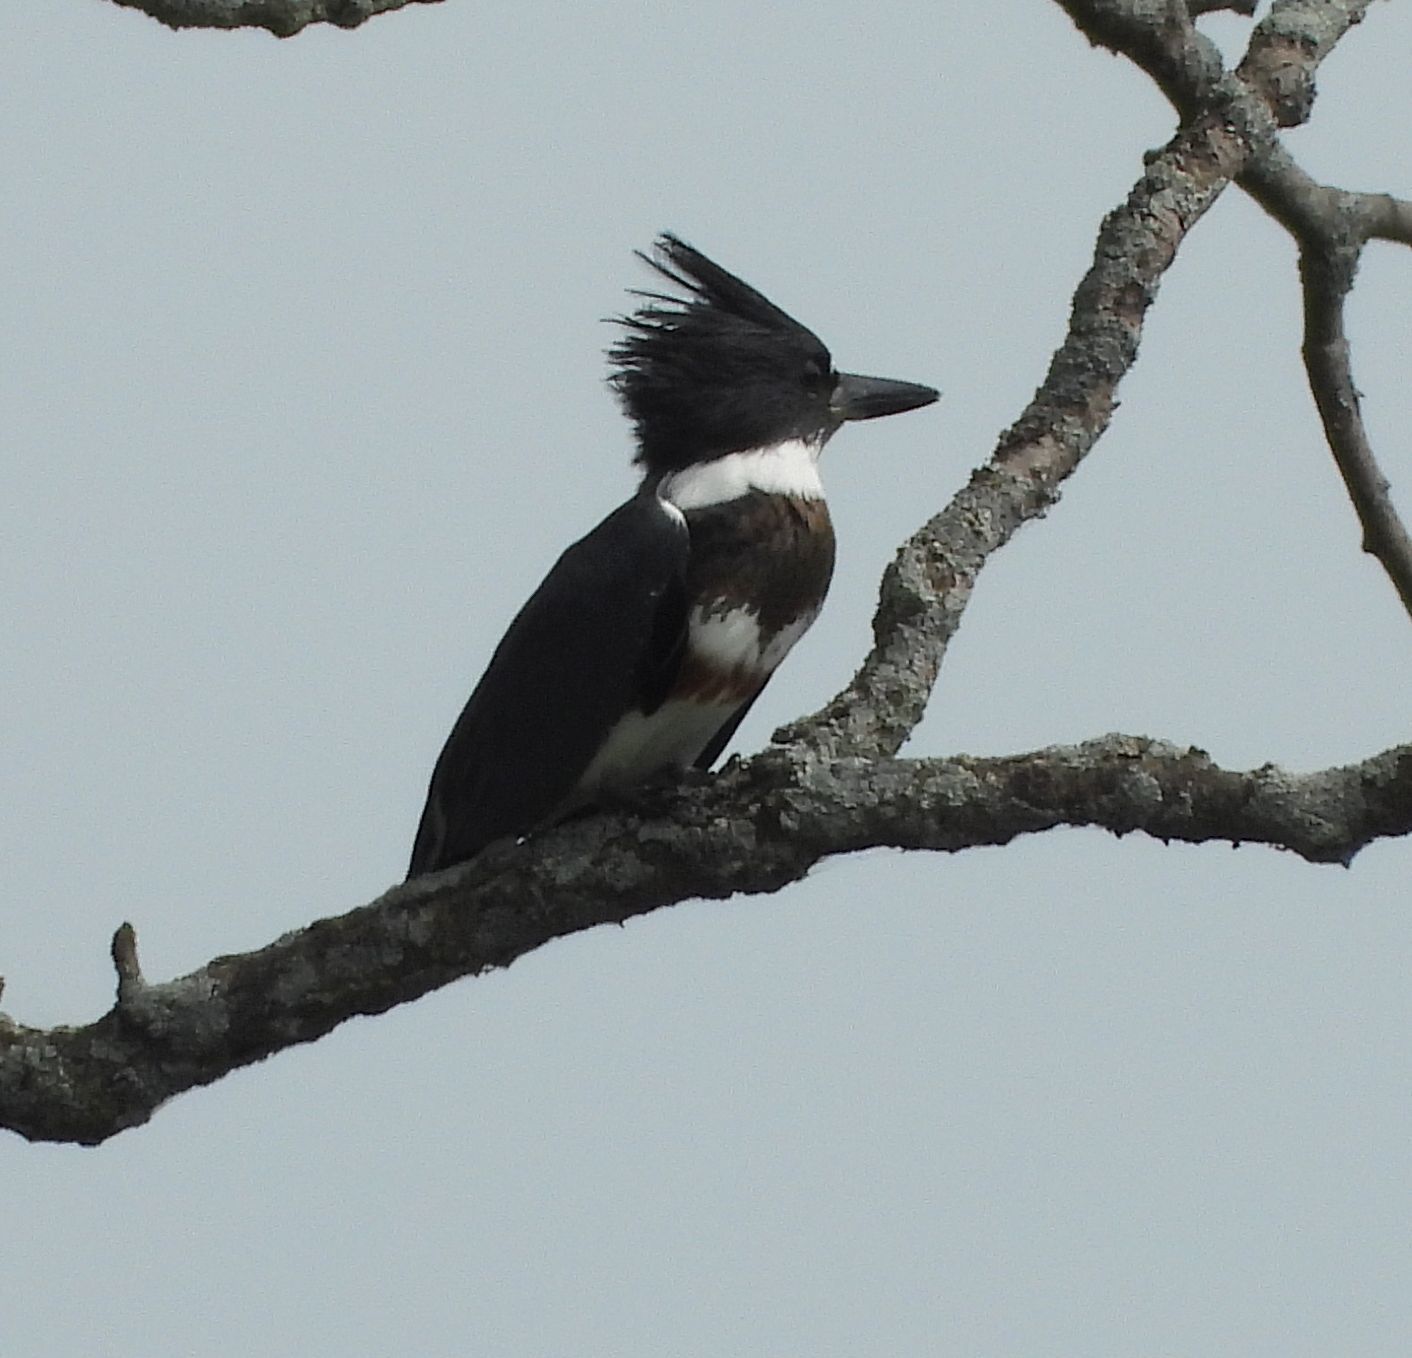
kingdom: Animalia
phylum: Chordata
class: Aves
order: Coraciiformes
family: Alcedinidae
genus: Megaceryle
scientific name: Megaceryle alcyon
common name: Belted kingfisher
